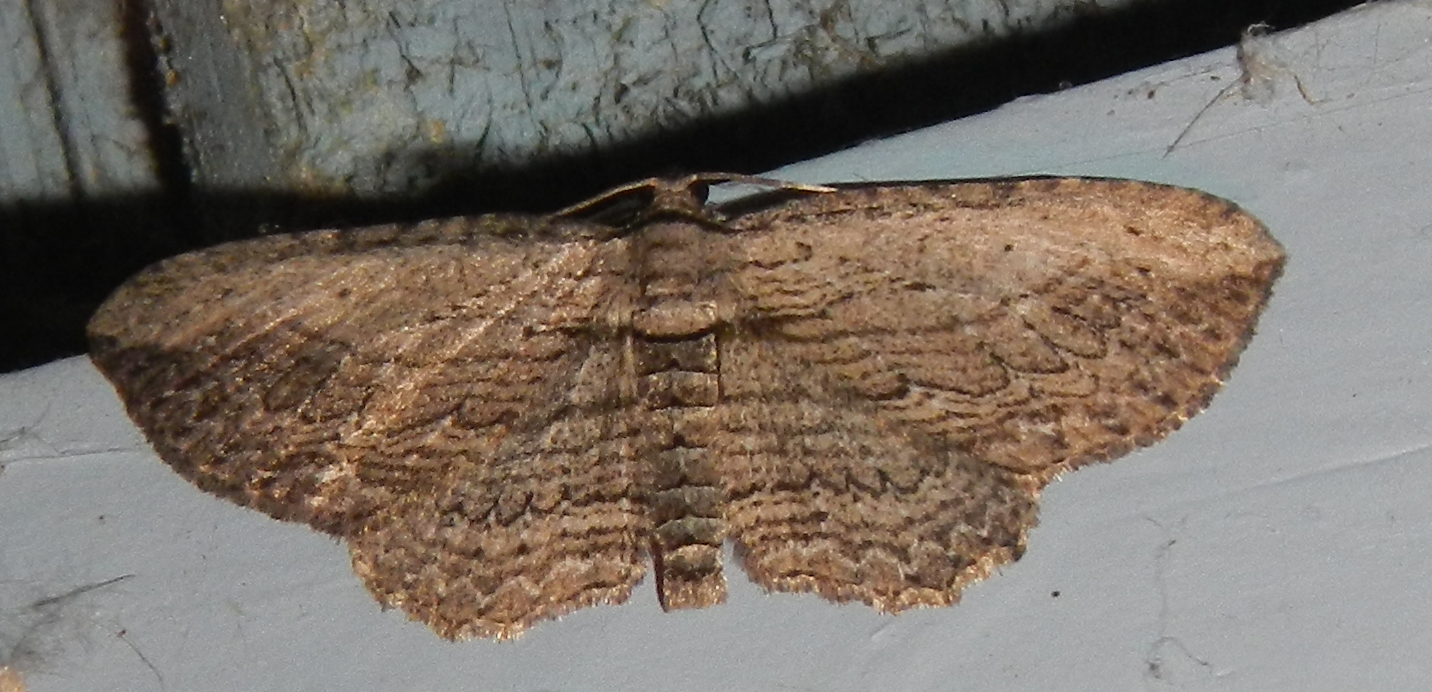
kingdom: Animalia
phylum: Arthropoda
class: Insecta
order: Lepidoptera
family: Geometridae
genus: Horisme
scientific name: Horisme intestinata
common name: Brown bark carpet
